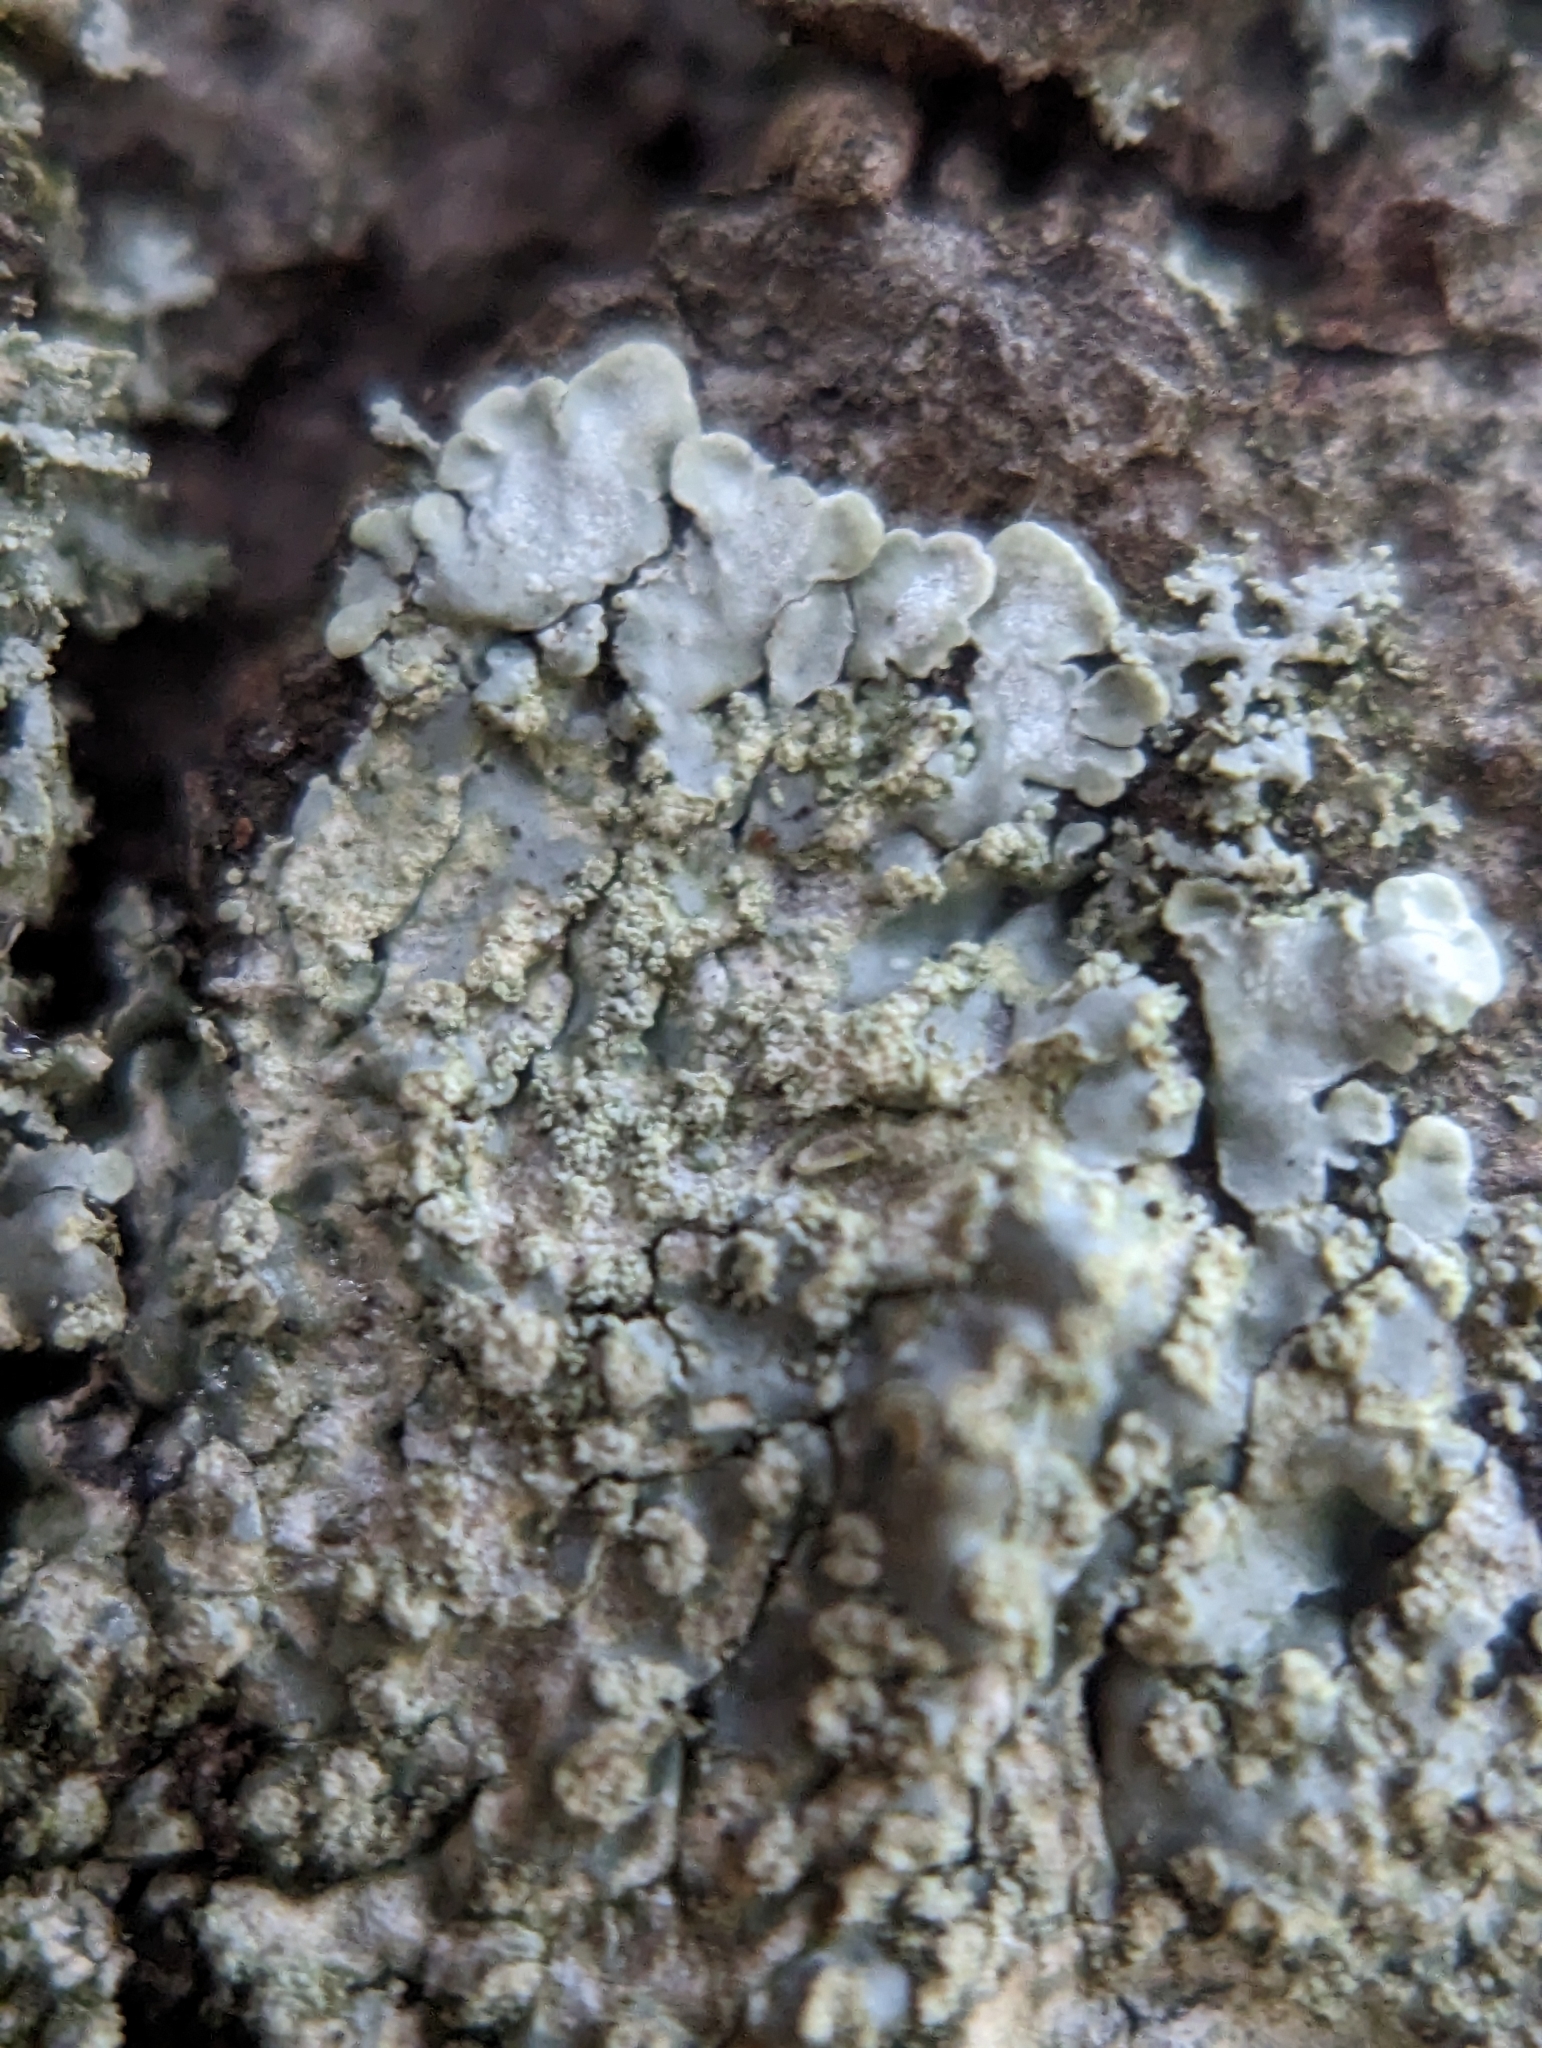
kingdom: Fungi
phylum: Ascomycota
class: Lecanoromycetes
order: Caliciales
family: Caliciaceae
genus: Pyxine
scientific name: Pyxine subcinerea
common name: Mustard lichen
